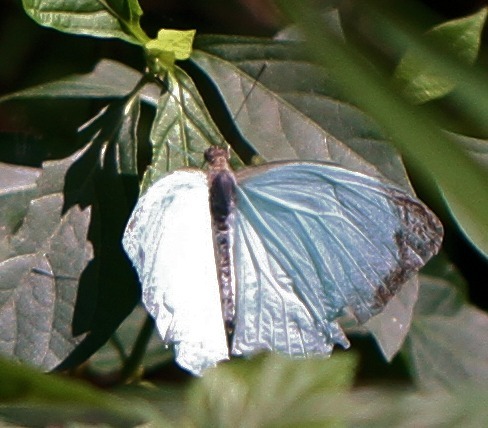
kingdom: Animalia
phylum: Arthropoda
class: Insecta
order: Lepidoptera
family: Pieridae
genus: Nepheronia
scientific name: Nepheronia thalassina
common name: Cambridge vagrant
